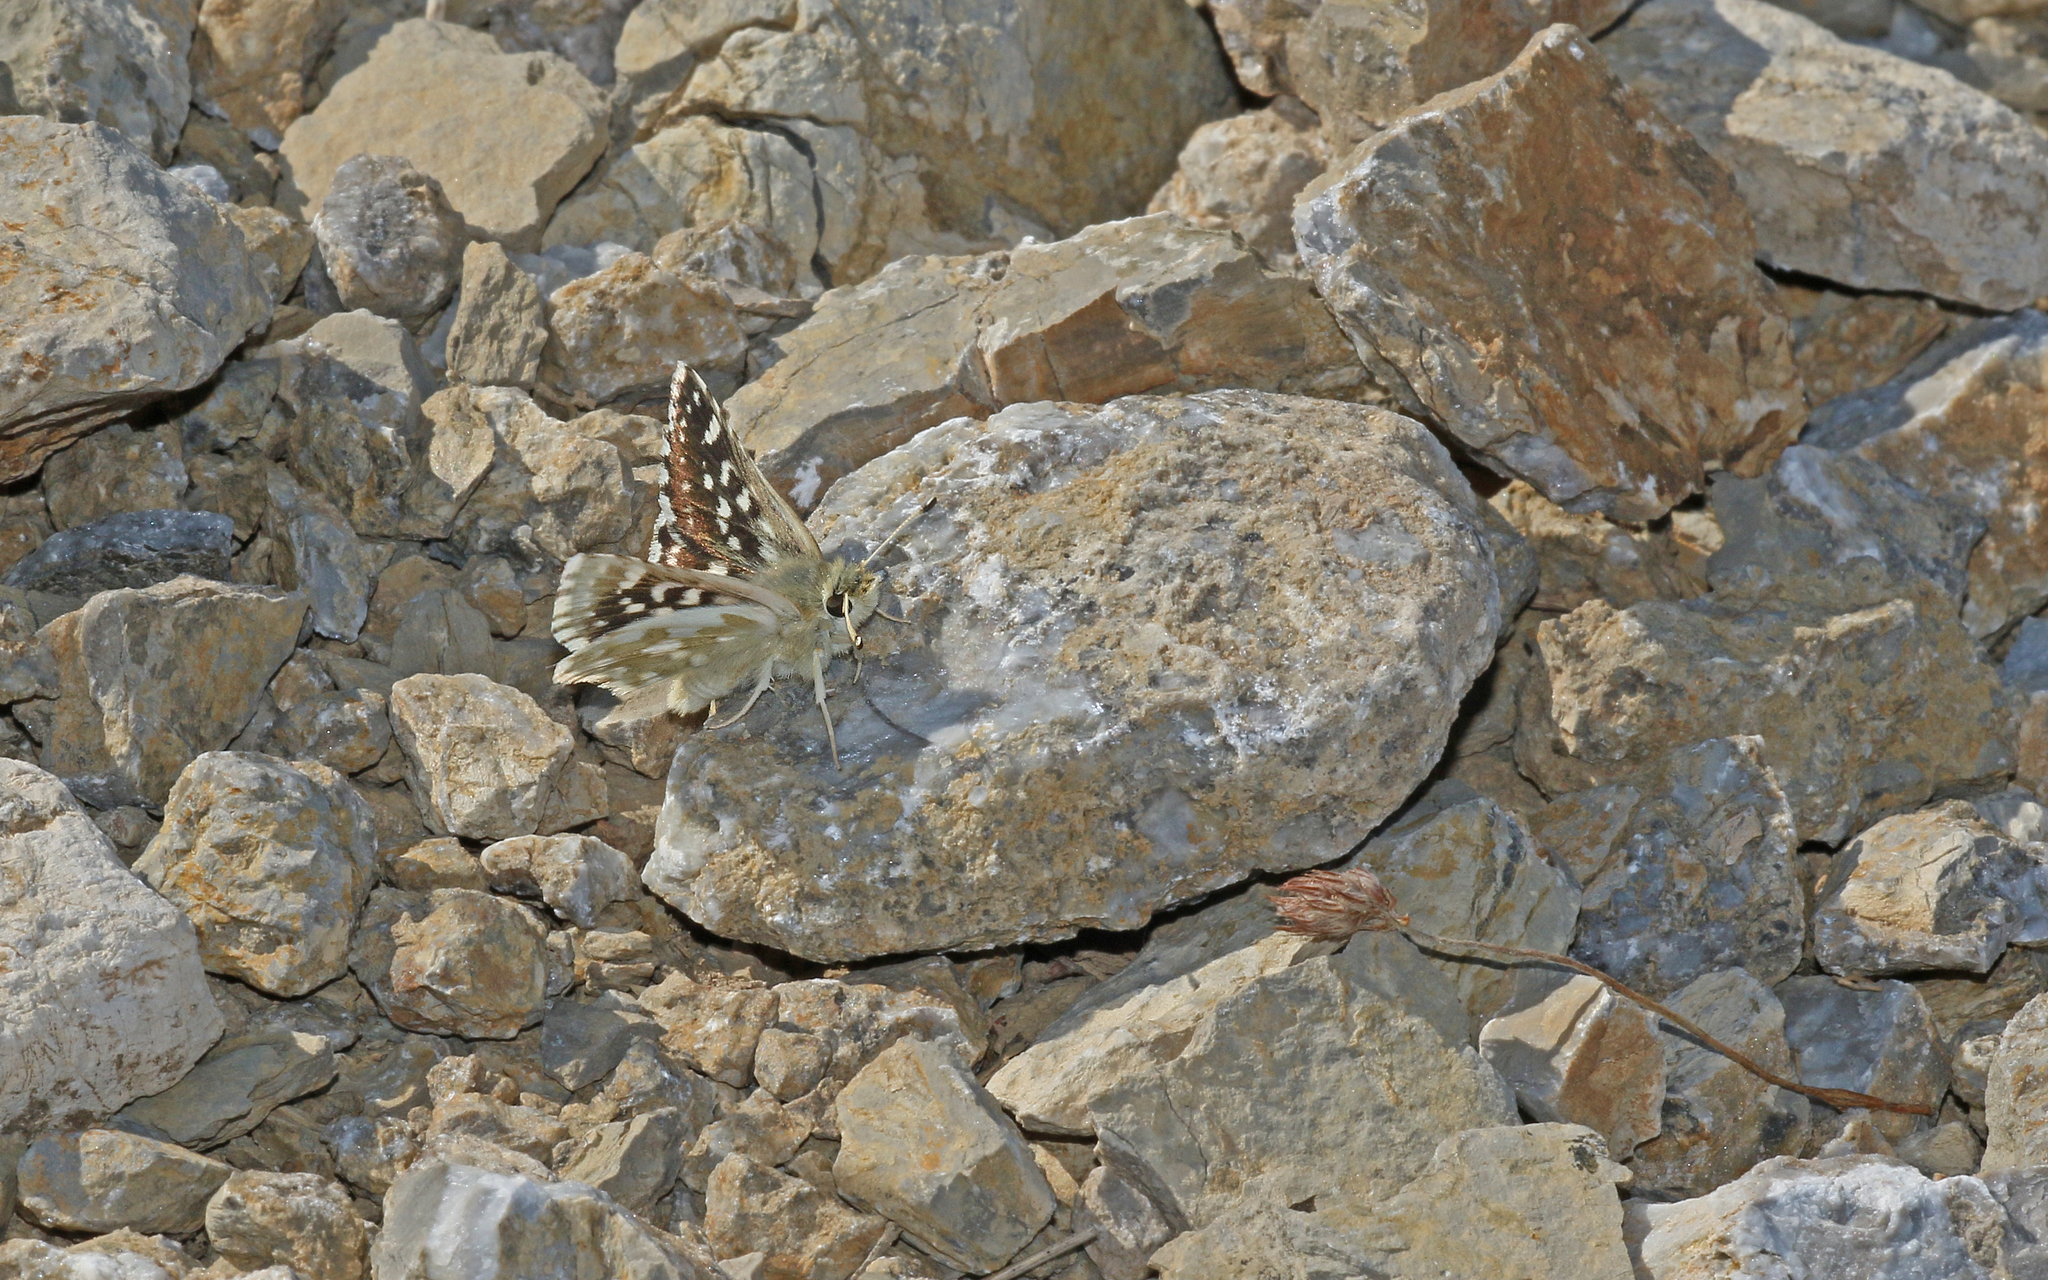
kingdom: Animalia
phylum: Arthropoda
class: Insecta
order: Lepidoptera
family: Hesperiidae
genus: Spialia
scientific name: Spialia phlomidis
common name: Persian skipper
